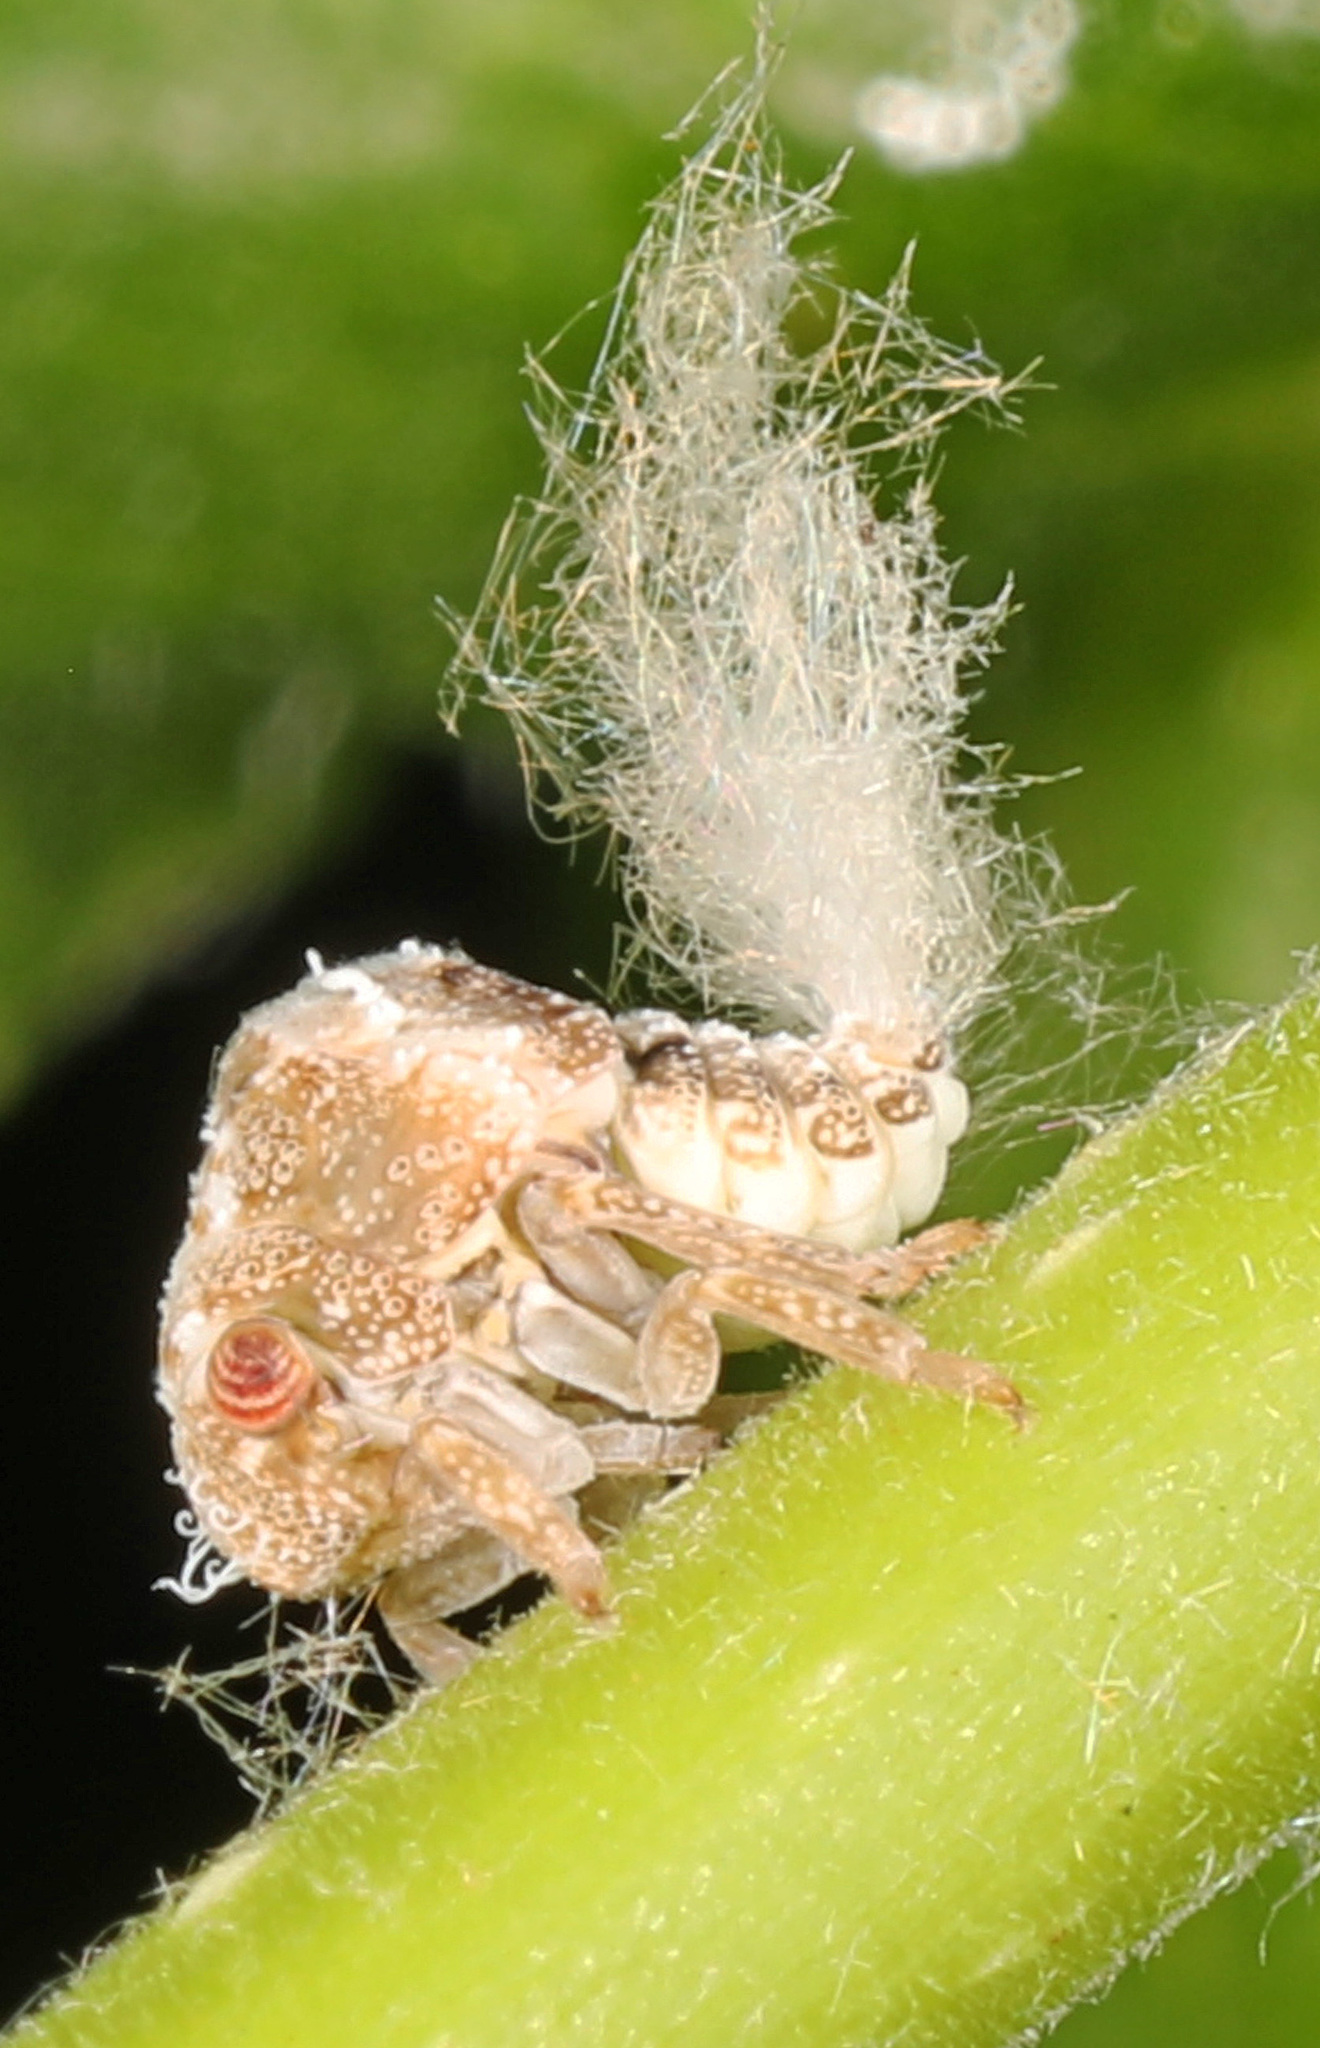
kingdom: Animalia
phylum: Arthropoda
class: Insecta
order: Hemiptera
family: Acanaloniidae
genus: Acanalonia
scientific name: Acanalonia bivittata
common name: Two-striped planthopper
